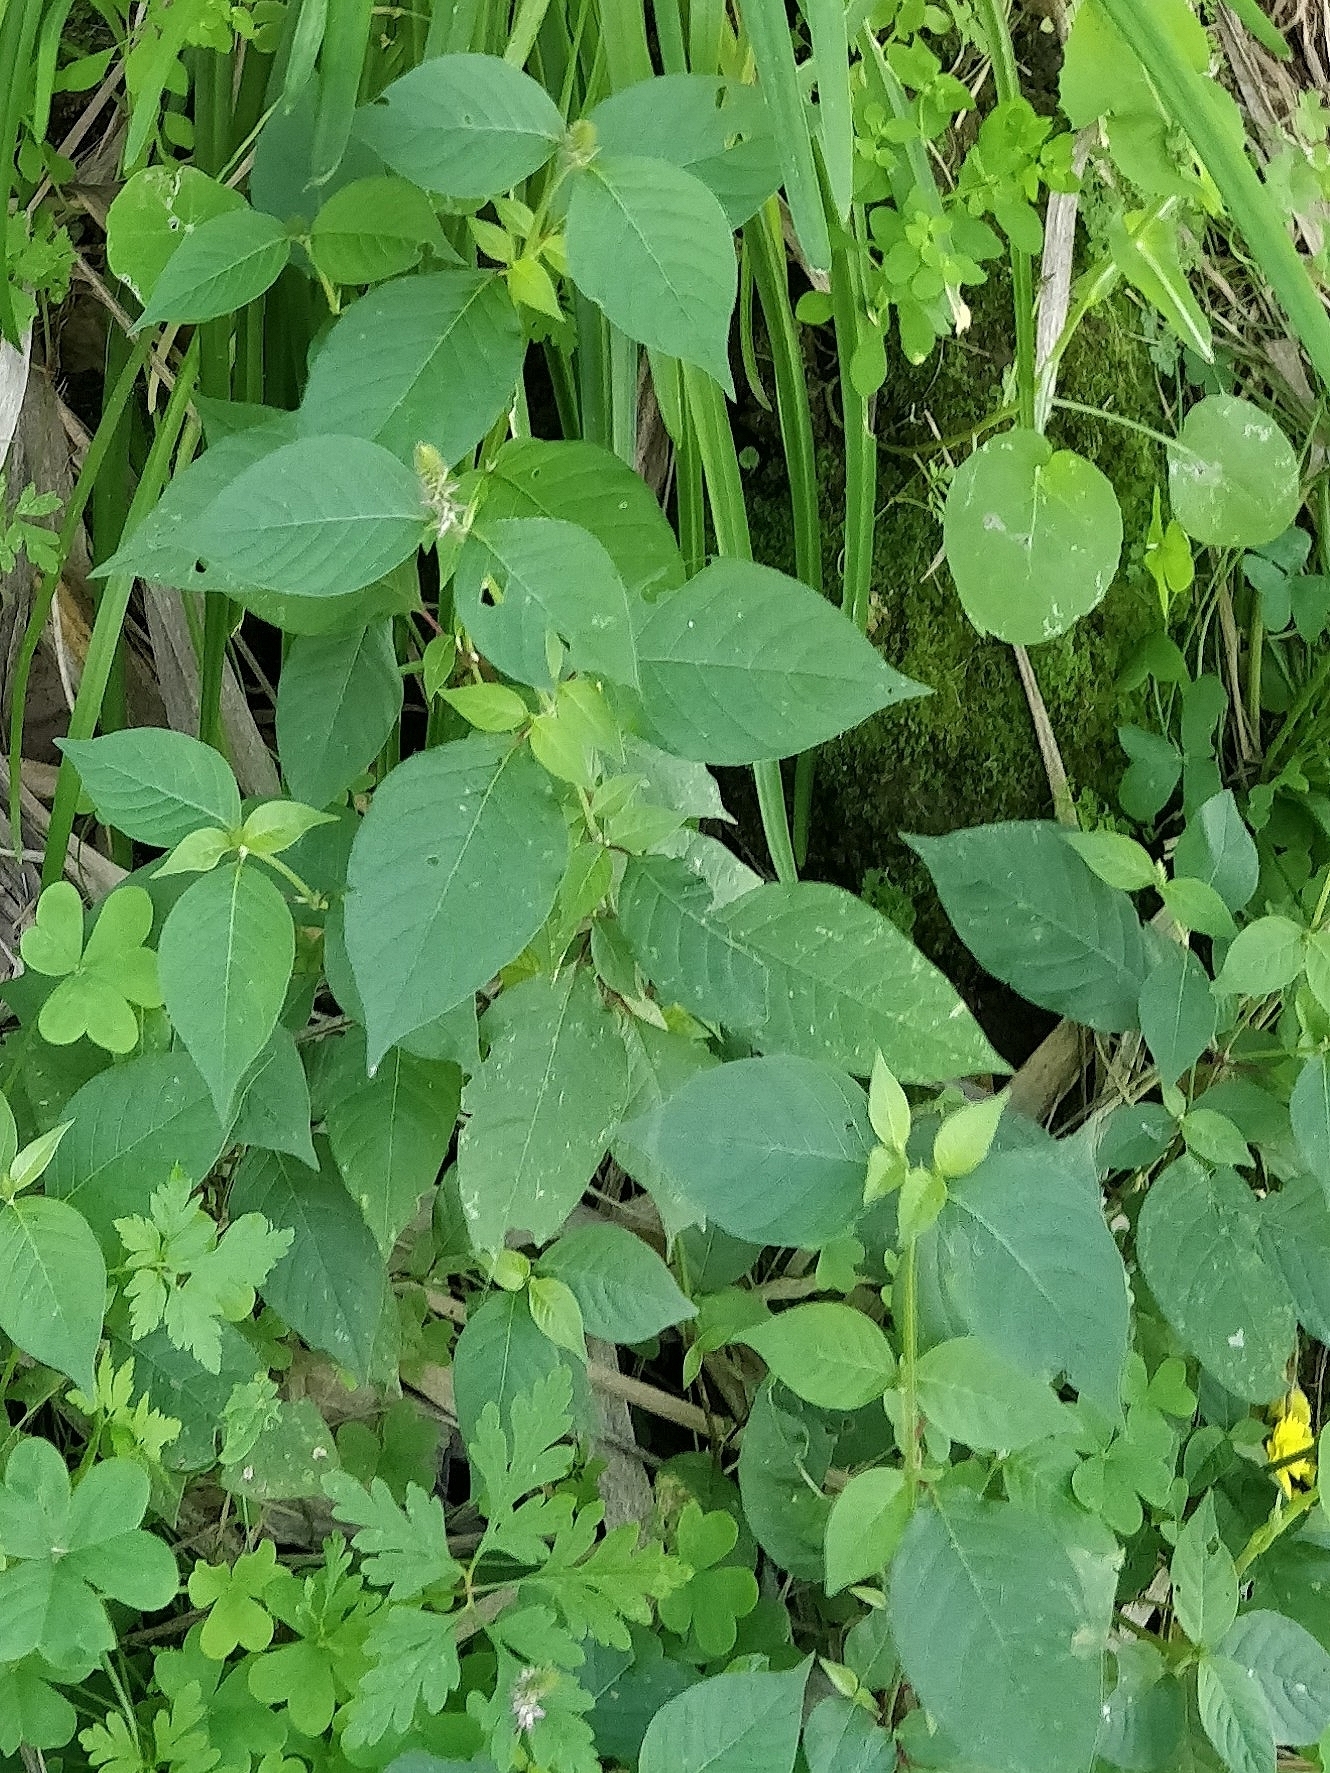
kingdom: Plantae
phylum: Tracheophyta
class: Magnoliopsida
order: Caryophyllales
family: Amaranthaceae
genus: Achyranthes
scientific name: Achyranthes aspera
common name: Devil's horsewhip
